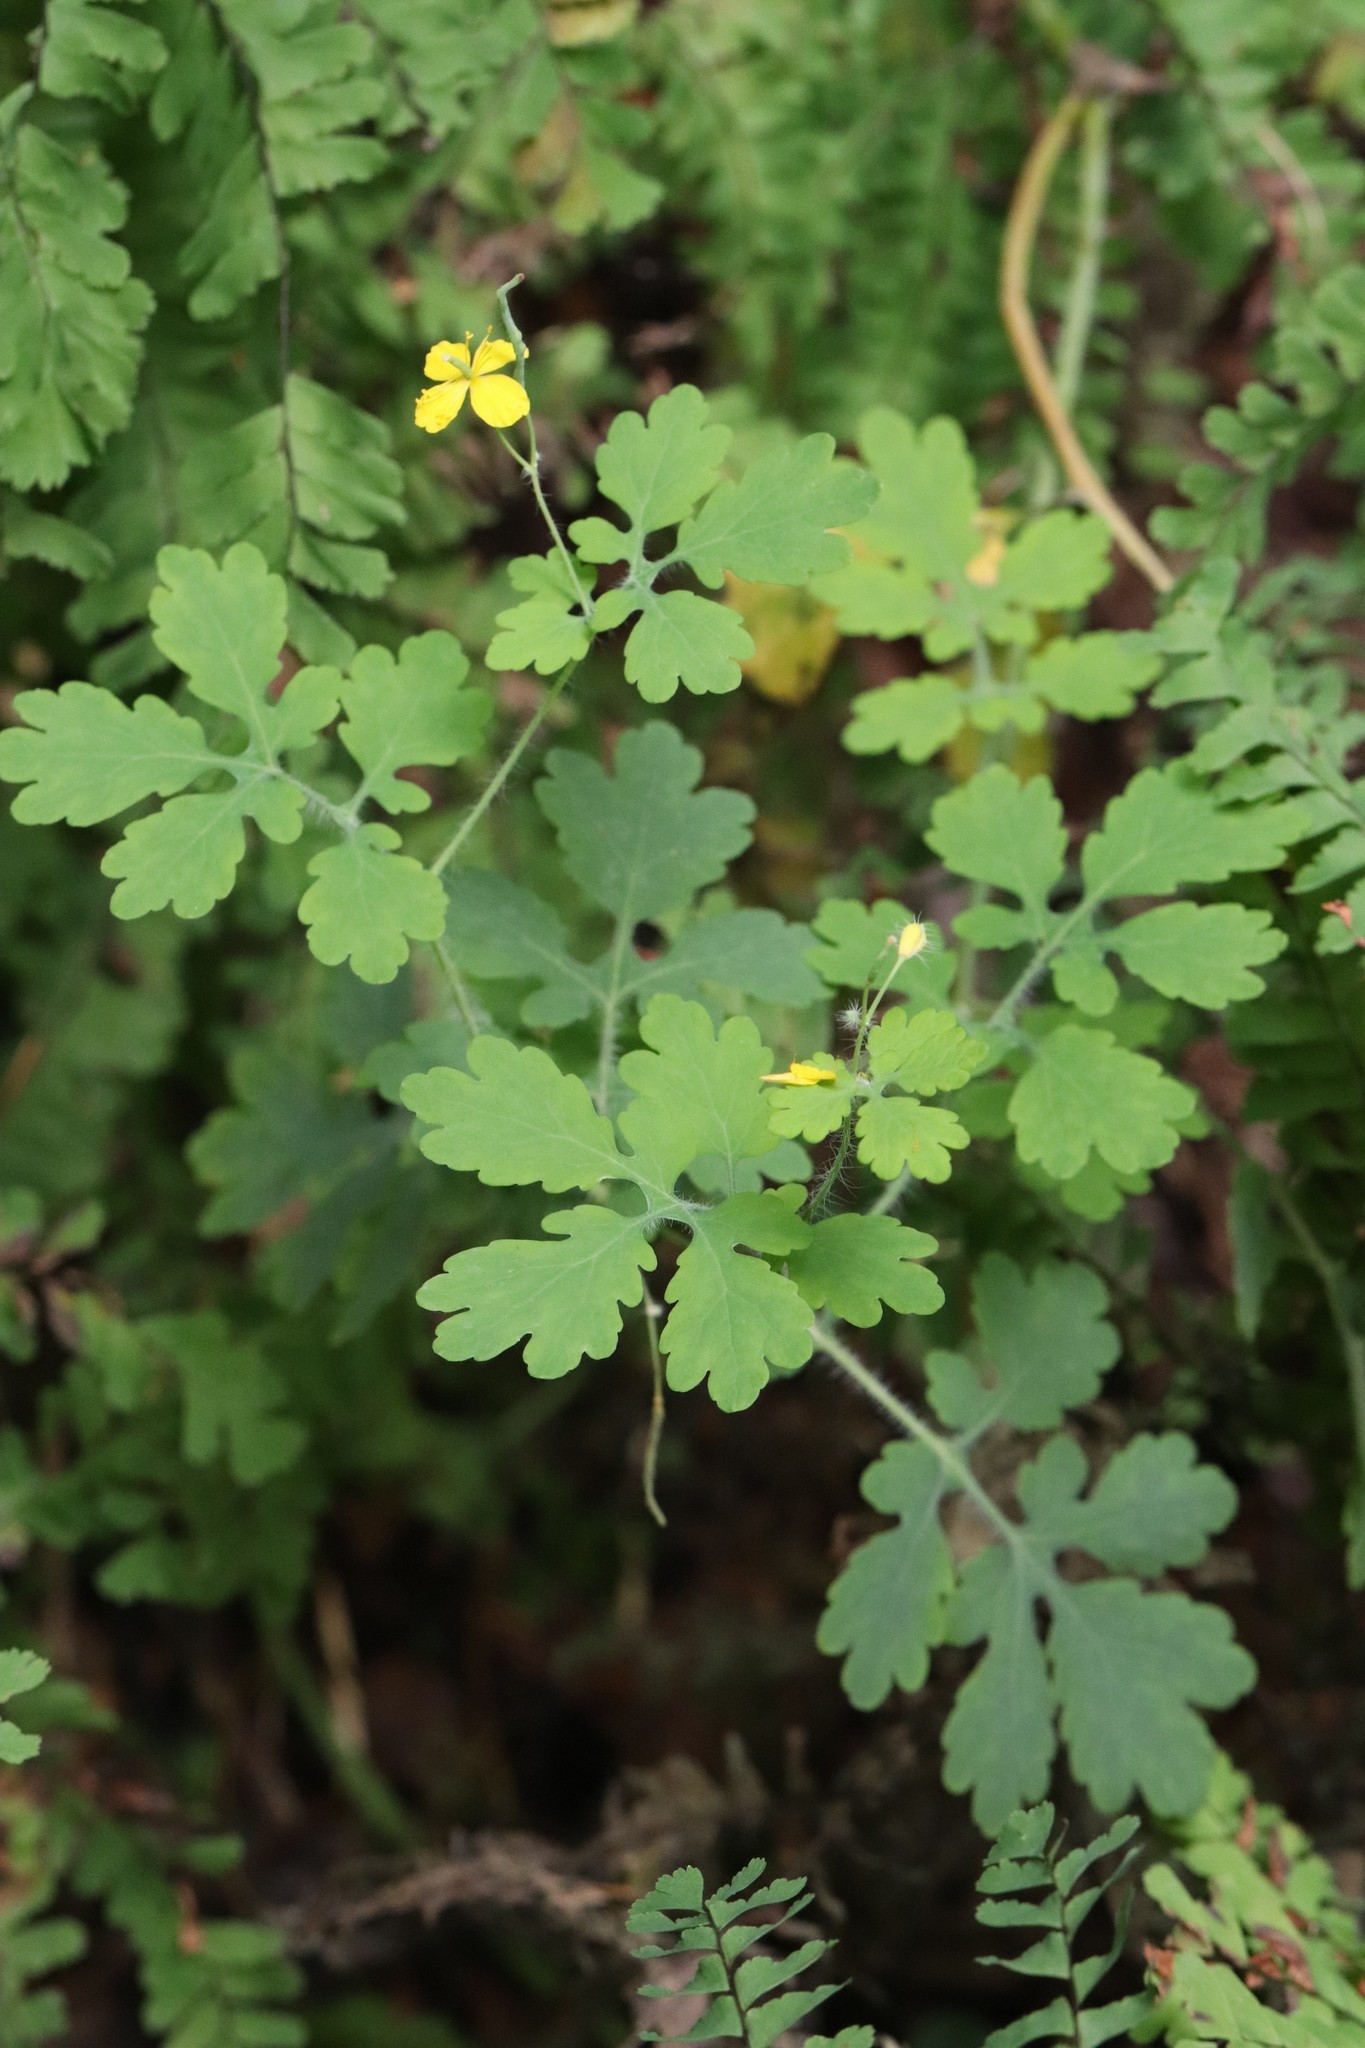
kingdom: Plantae
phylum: Tracheophyta
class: Magnoliopsida
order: Ranunculales
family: Papaveraceae
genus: Chelidonium
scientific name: Chelidonium majus
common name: Greater celandine
